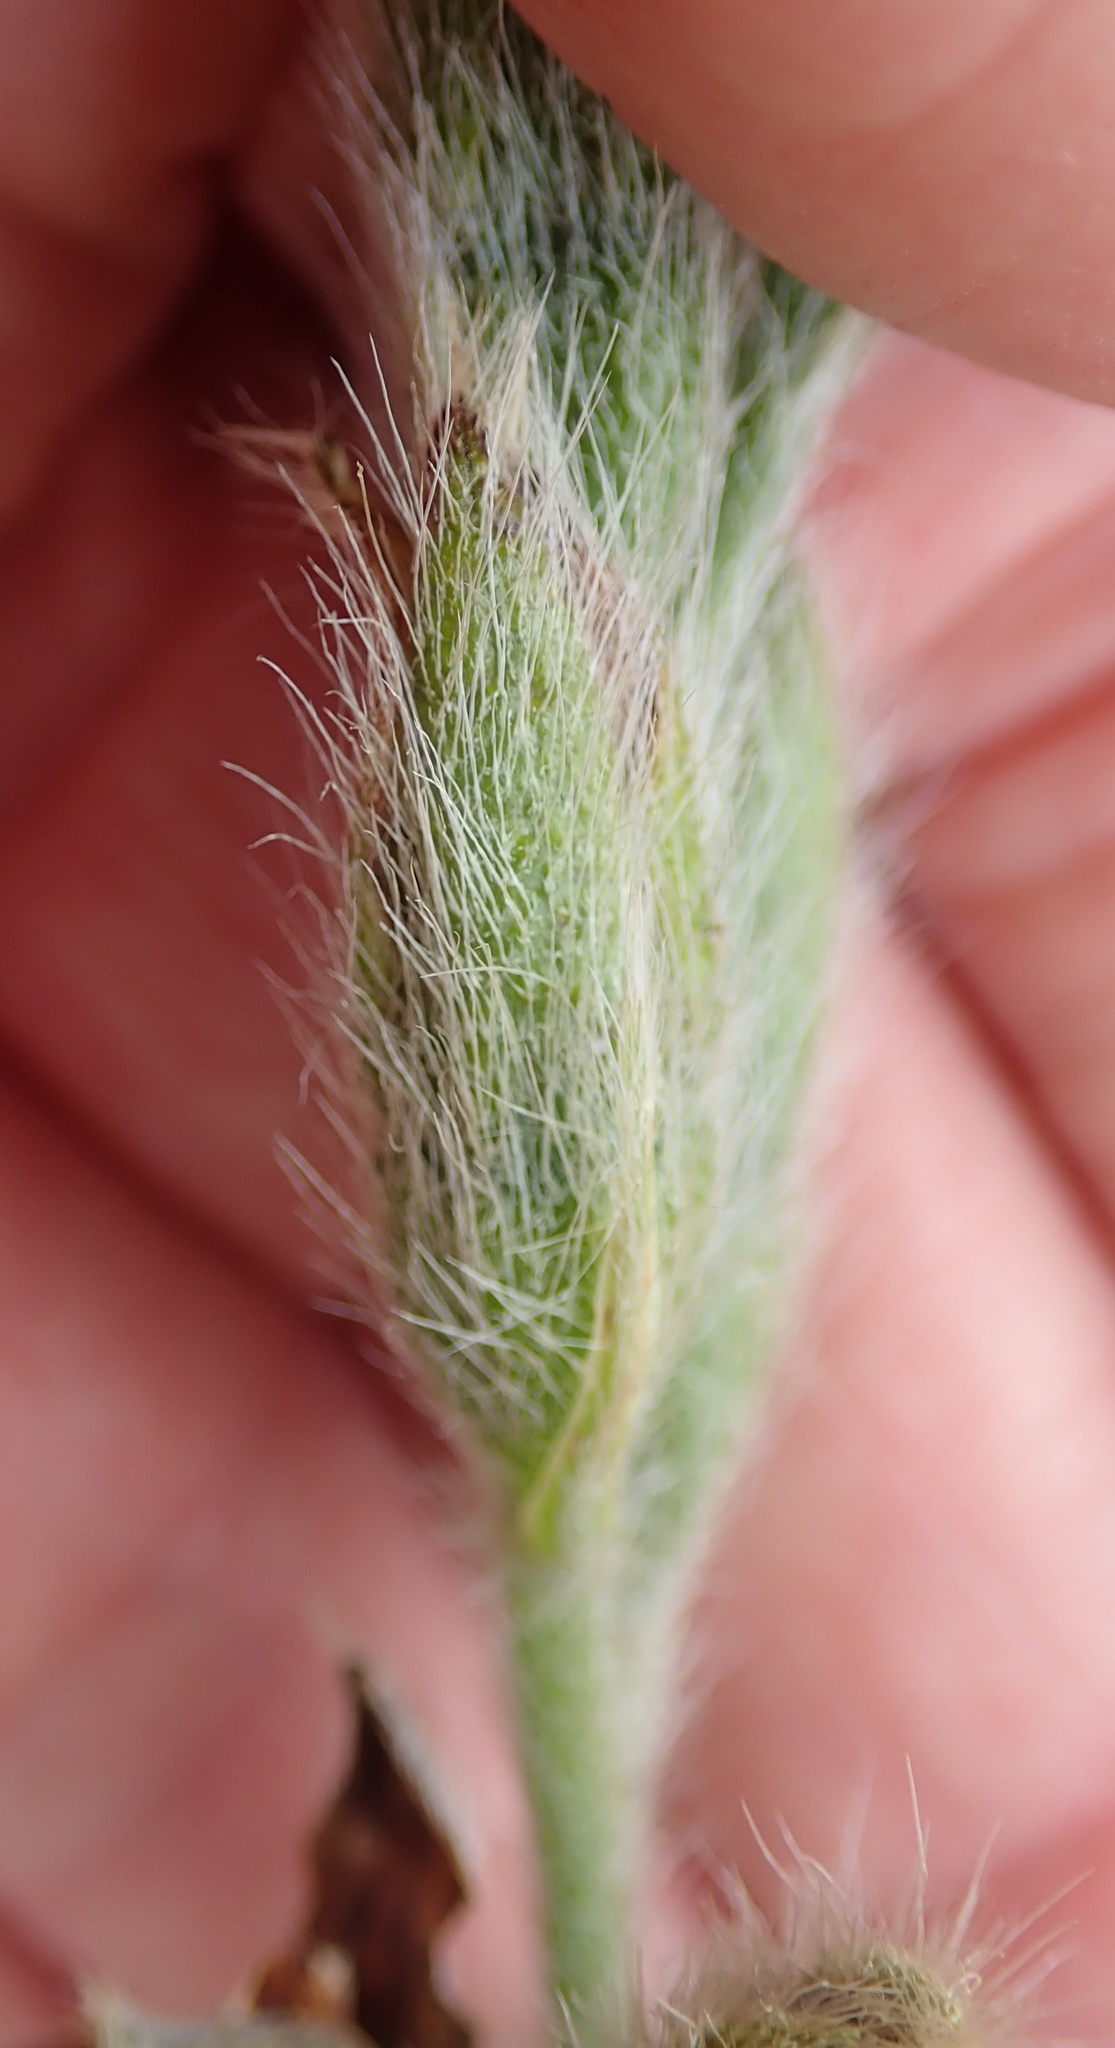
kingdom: Plantae
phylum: Tracheophyta
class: Liliopsida
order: Asparagales
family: Hypoxidaceae
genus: Hypoxis
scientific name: Hypoxis rigidula
